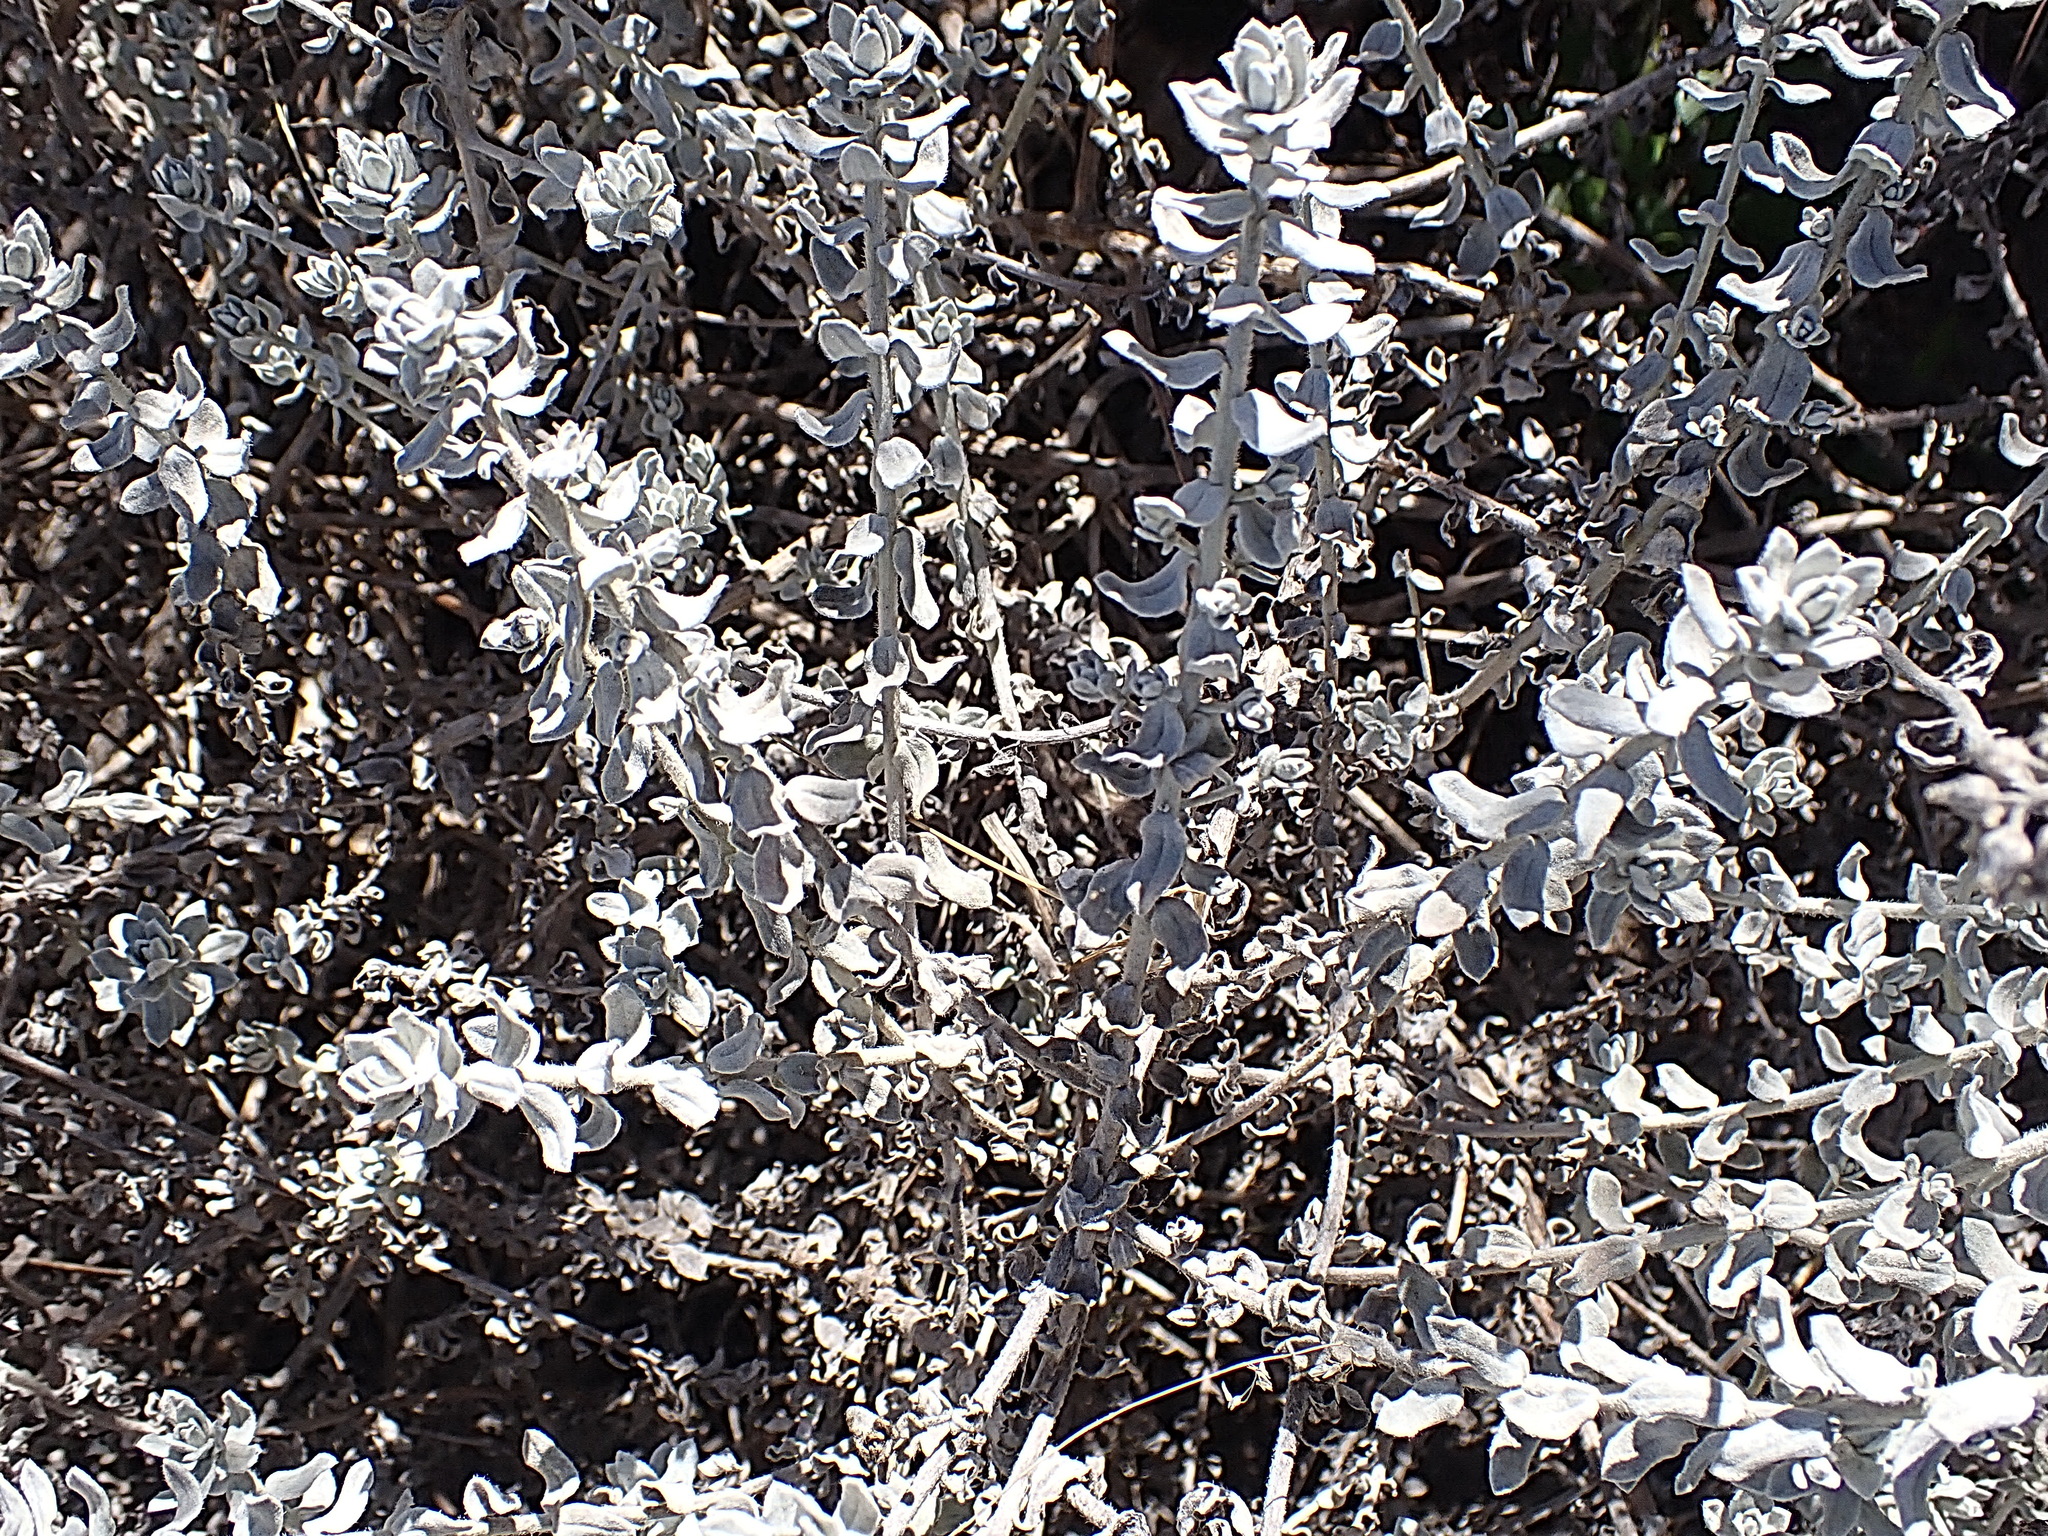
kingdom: Plantae
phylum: Tracheophyta
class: Magnoliopsida
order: Asterales
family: Asteraceae
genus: Helichrysum
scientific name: Helichrysum dasyanthum
